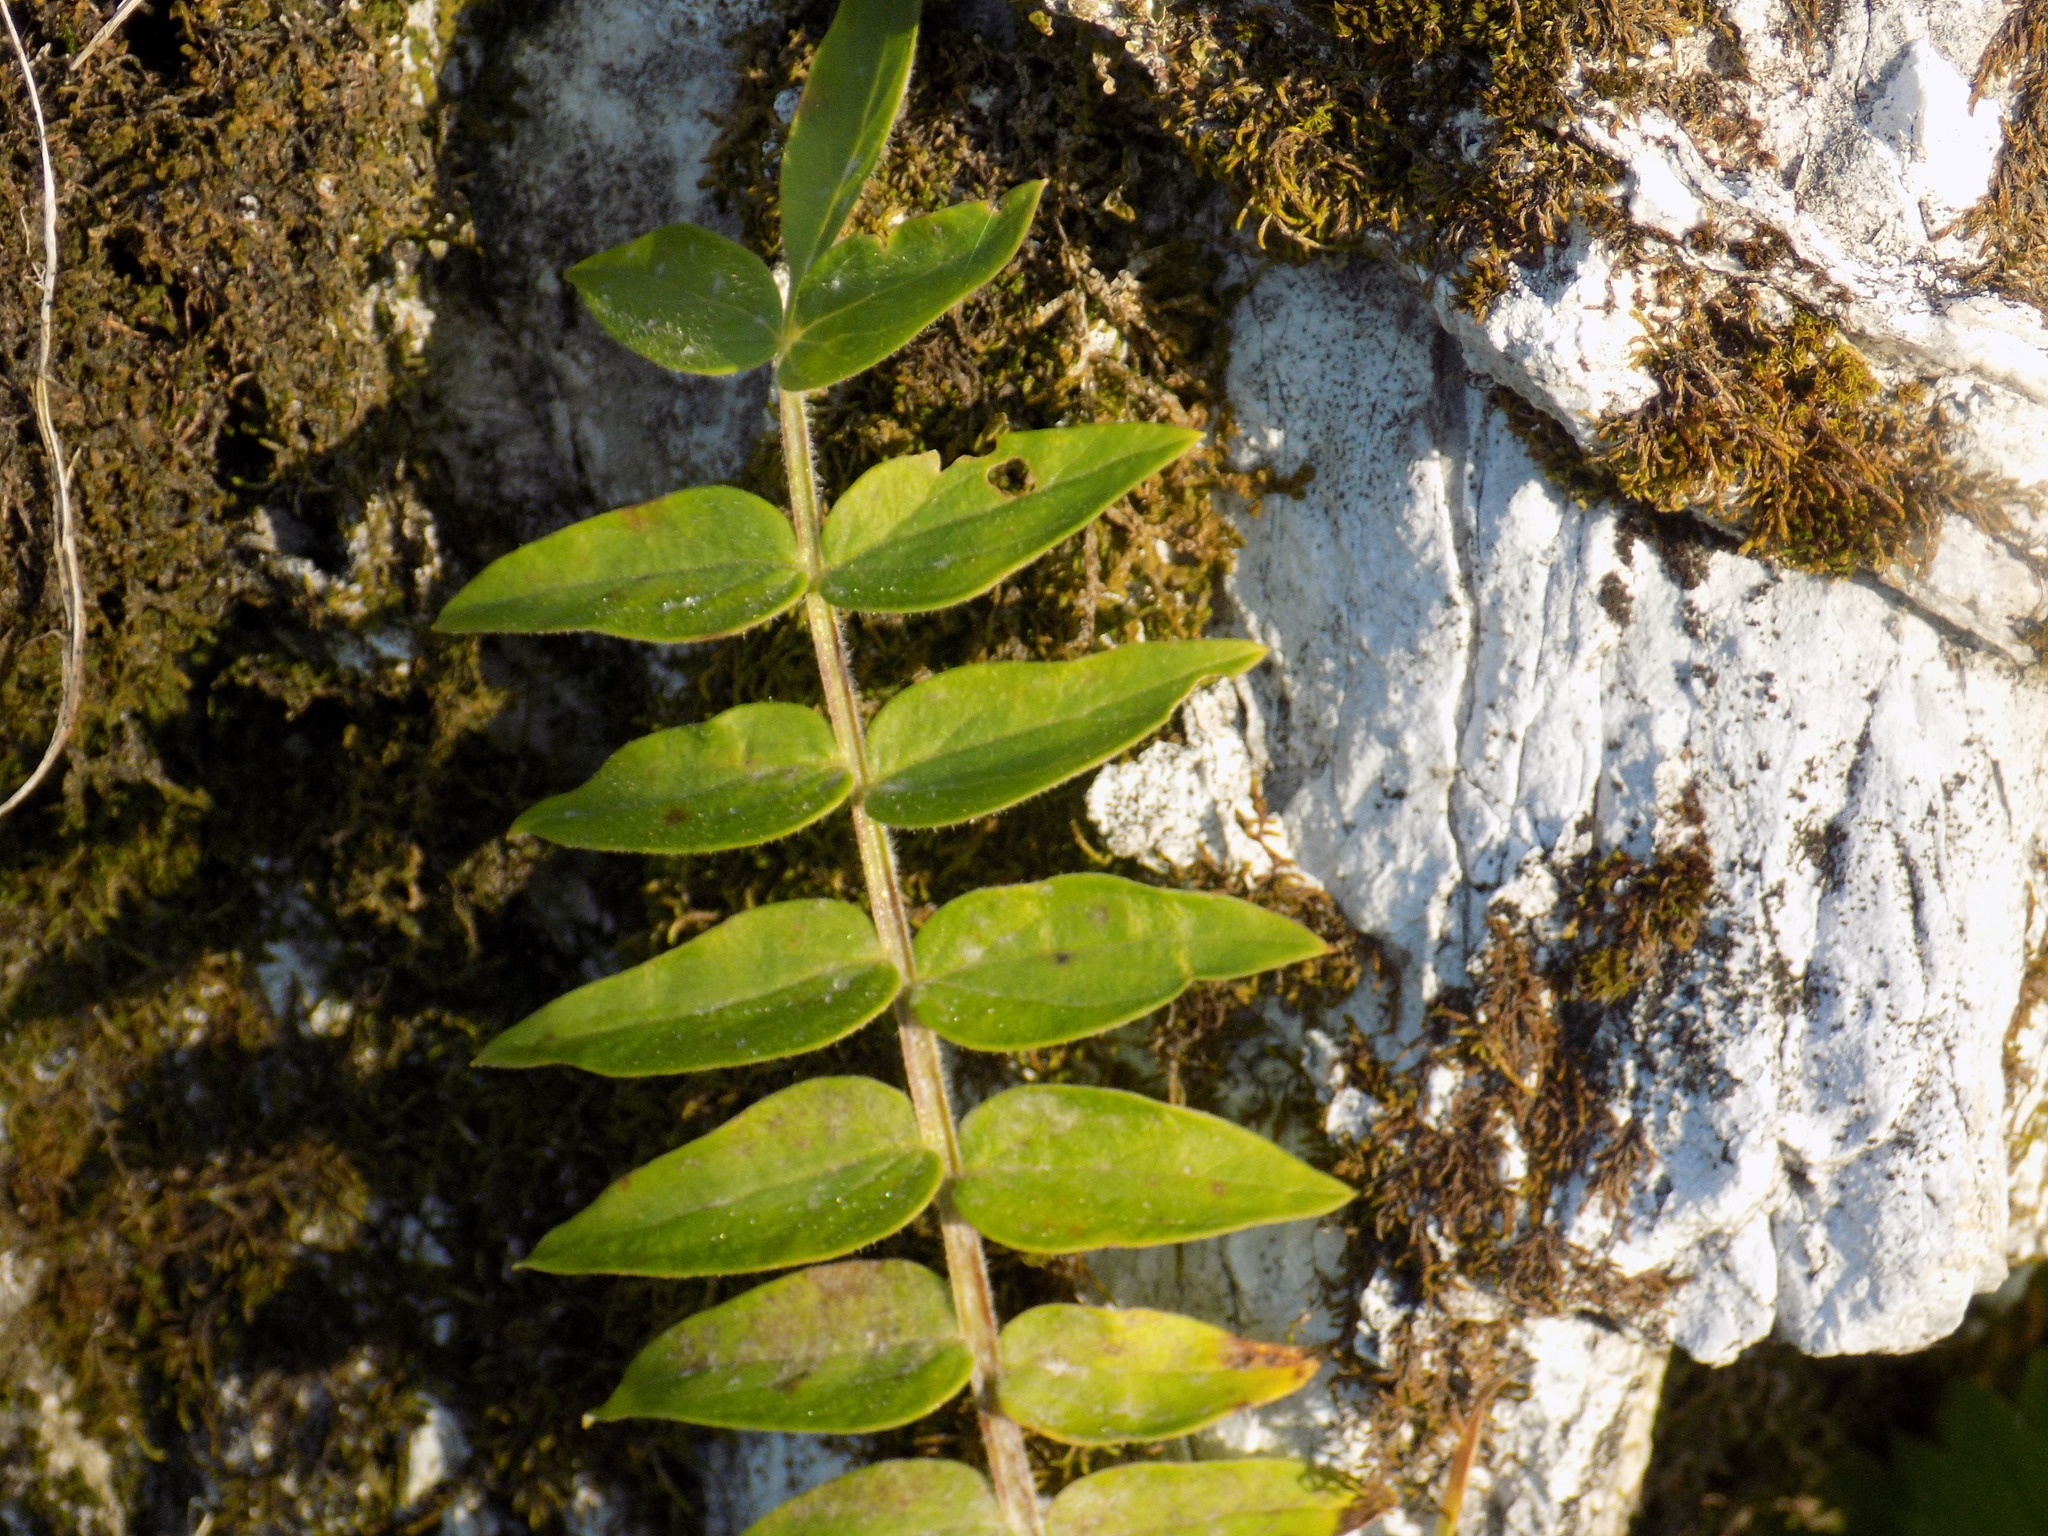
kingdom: Plantae
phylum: Tracheophyta
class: Magnoliopsida
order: Ericales
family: Polemoniaceae
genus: Polemonium
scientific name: Polemonium caeruleum
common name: Jacob's-ladder
